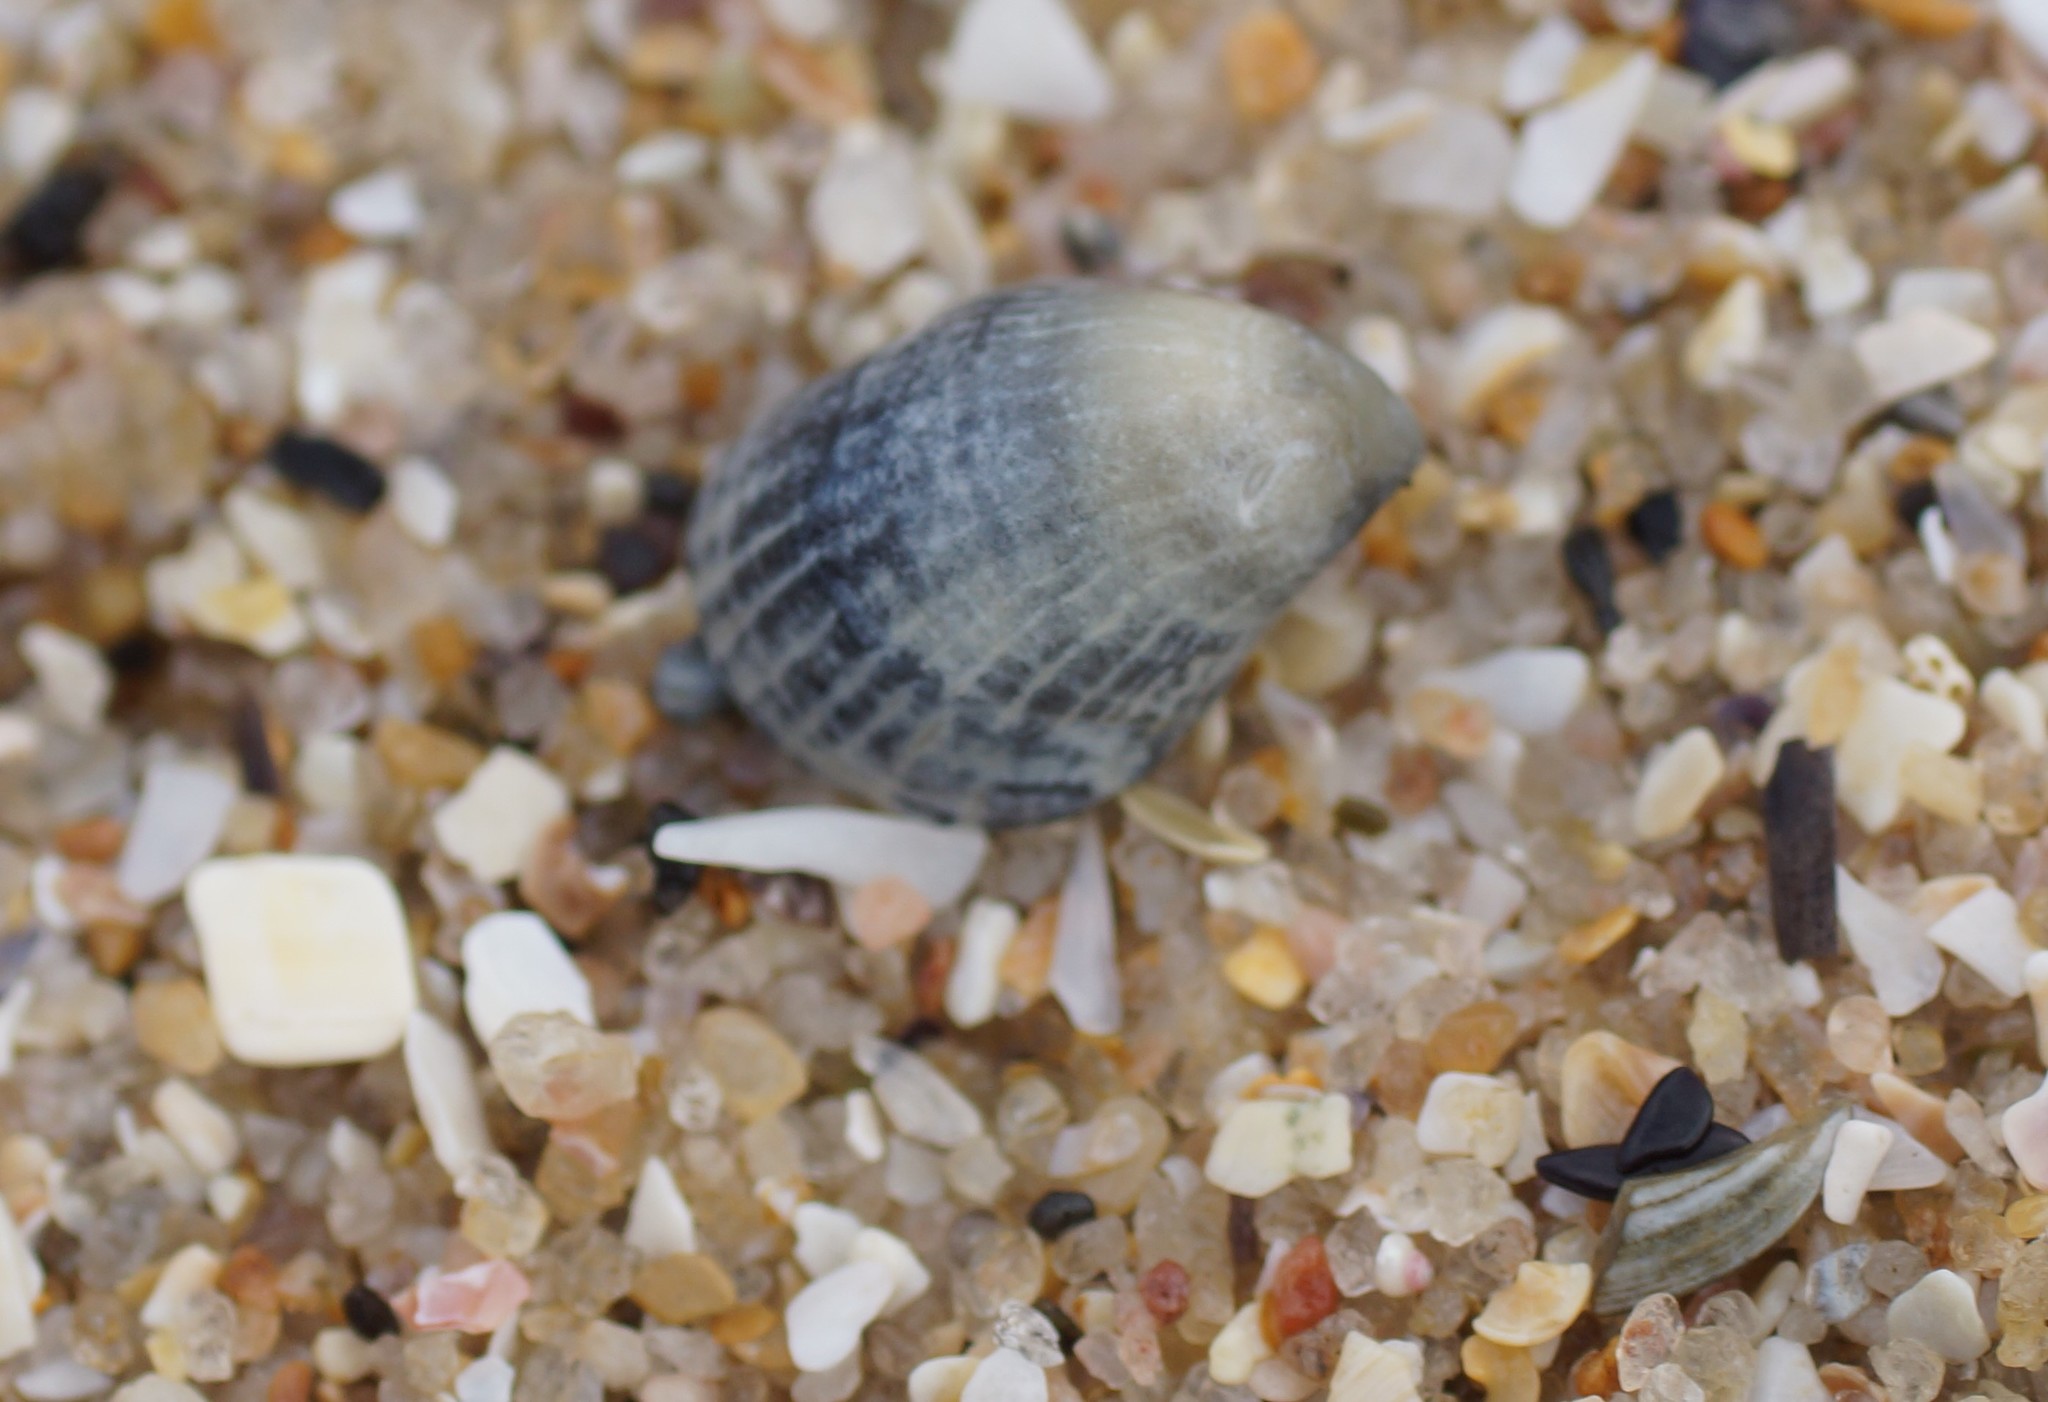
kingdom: Animalia
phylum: Mollusca
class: Gastropoda
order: Littorinimorpha
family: Hipponicidae
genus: Sabia
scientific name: Sabia australis
